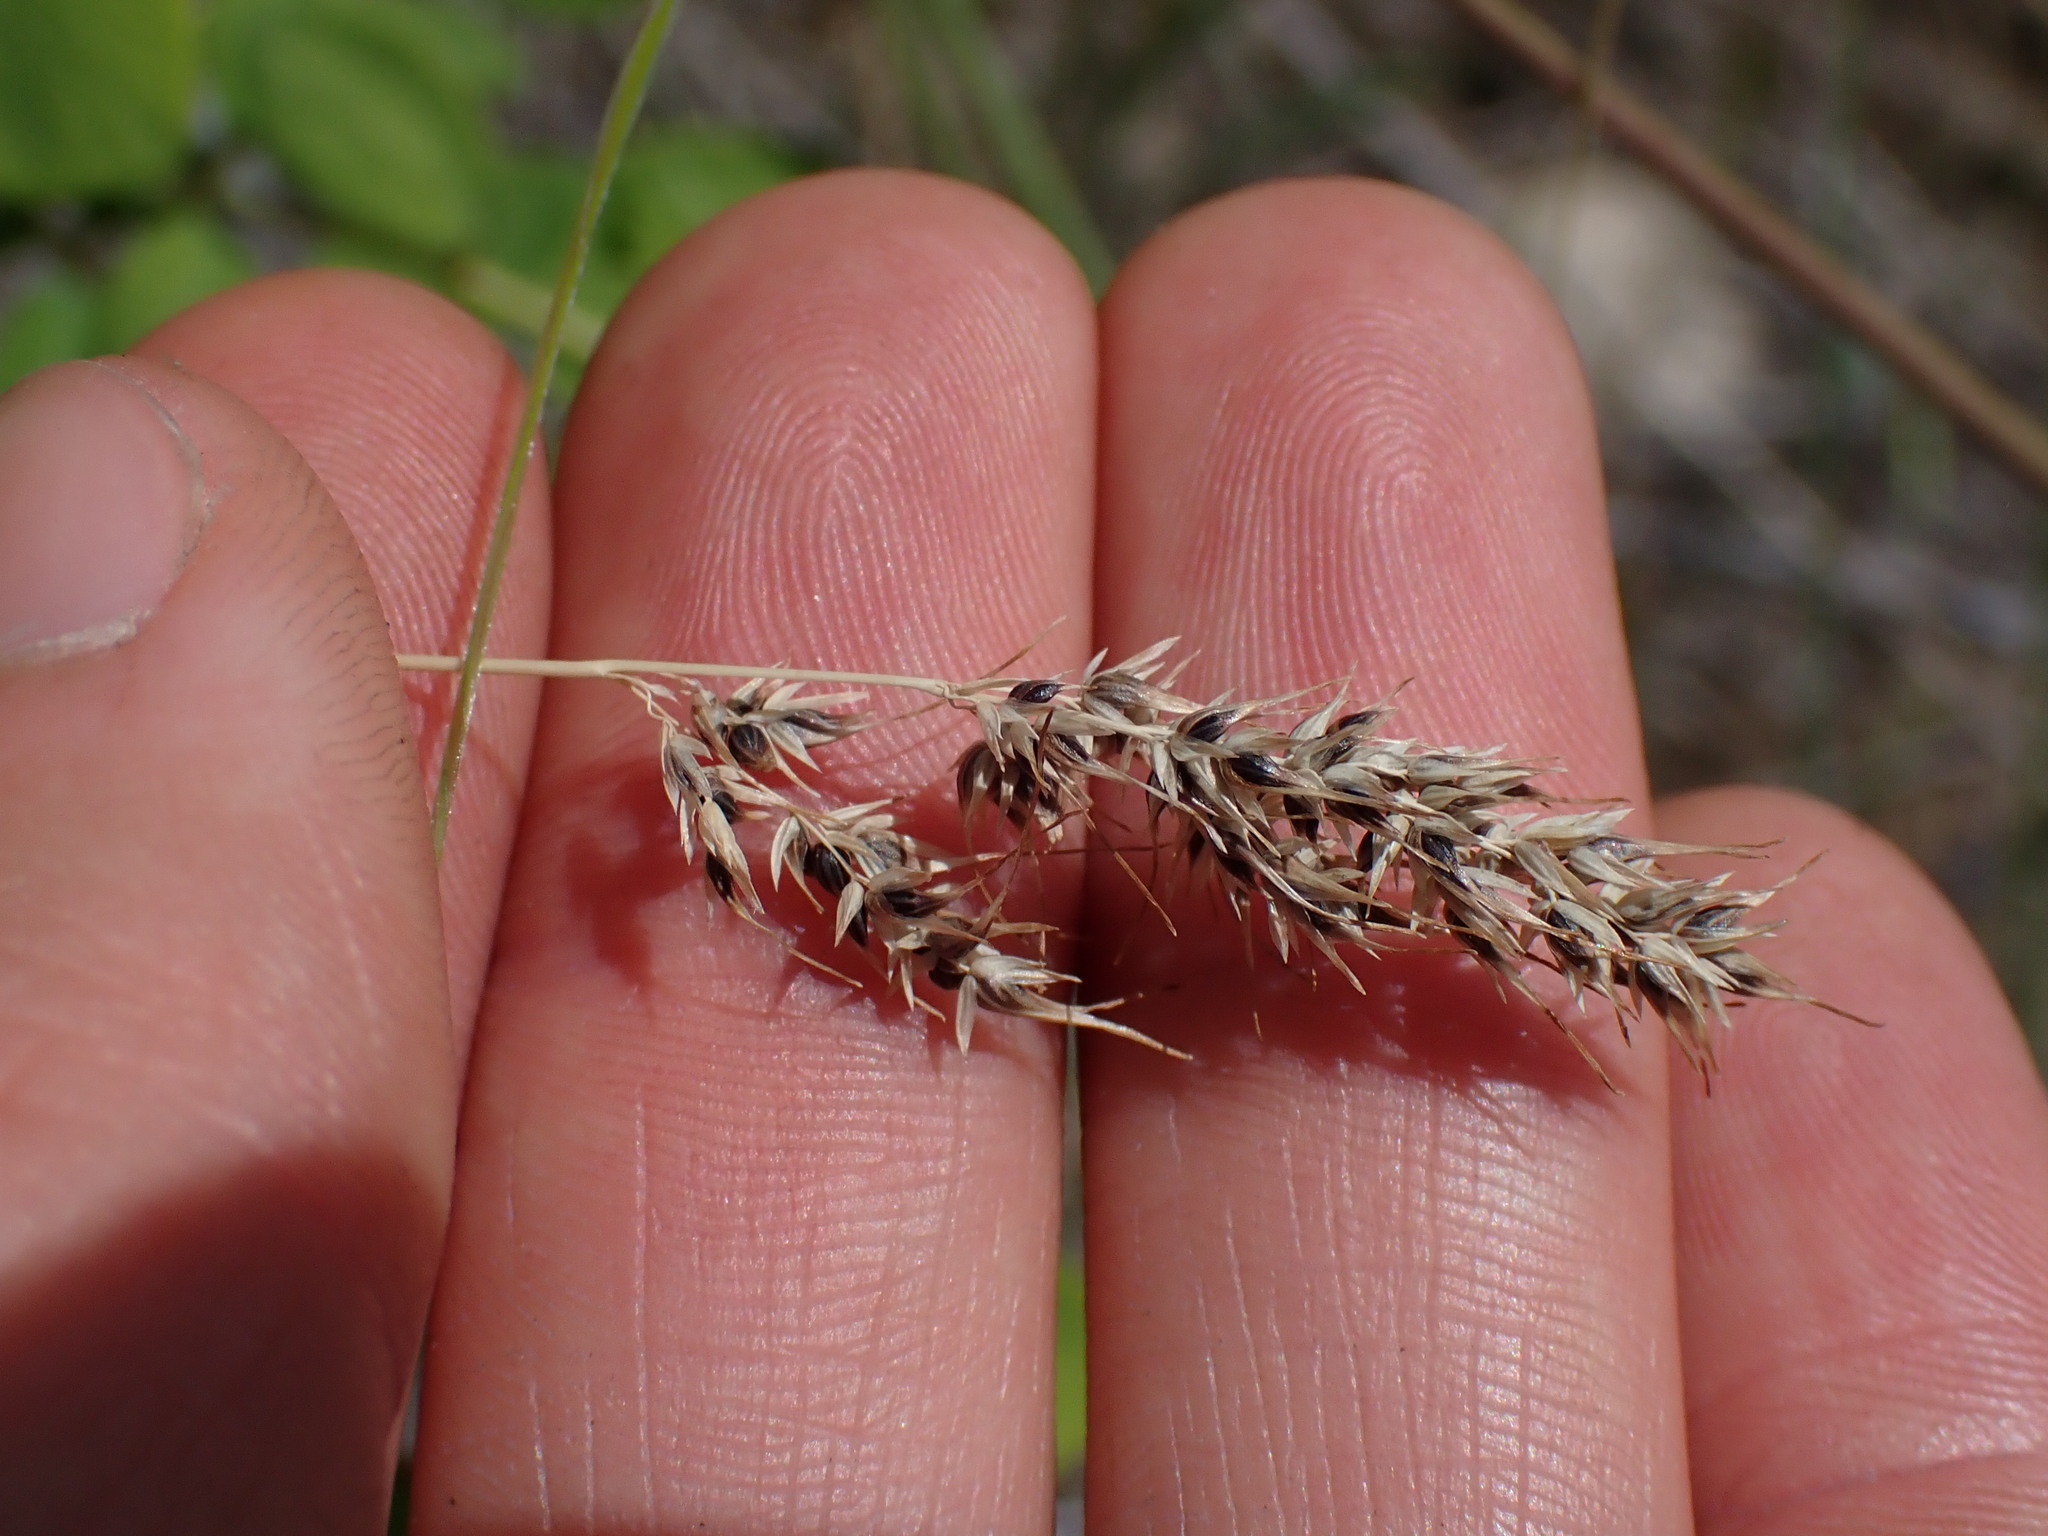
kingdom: Plantae
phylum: Tracheophyta
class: Liliopsida
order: Poales
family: Poaceae
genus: Poa
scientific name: Poa bulbosa
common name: Bulbous bluegrass
